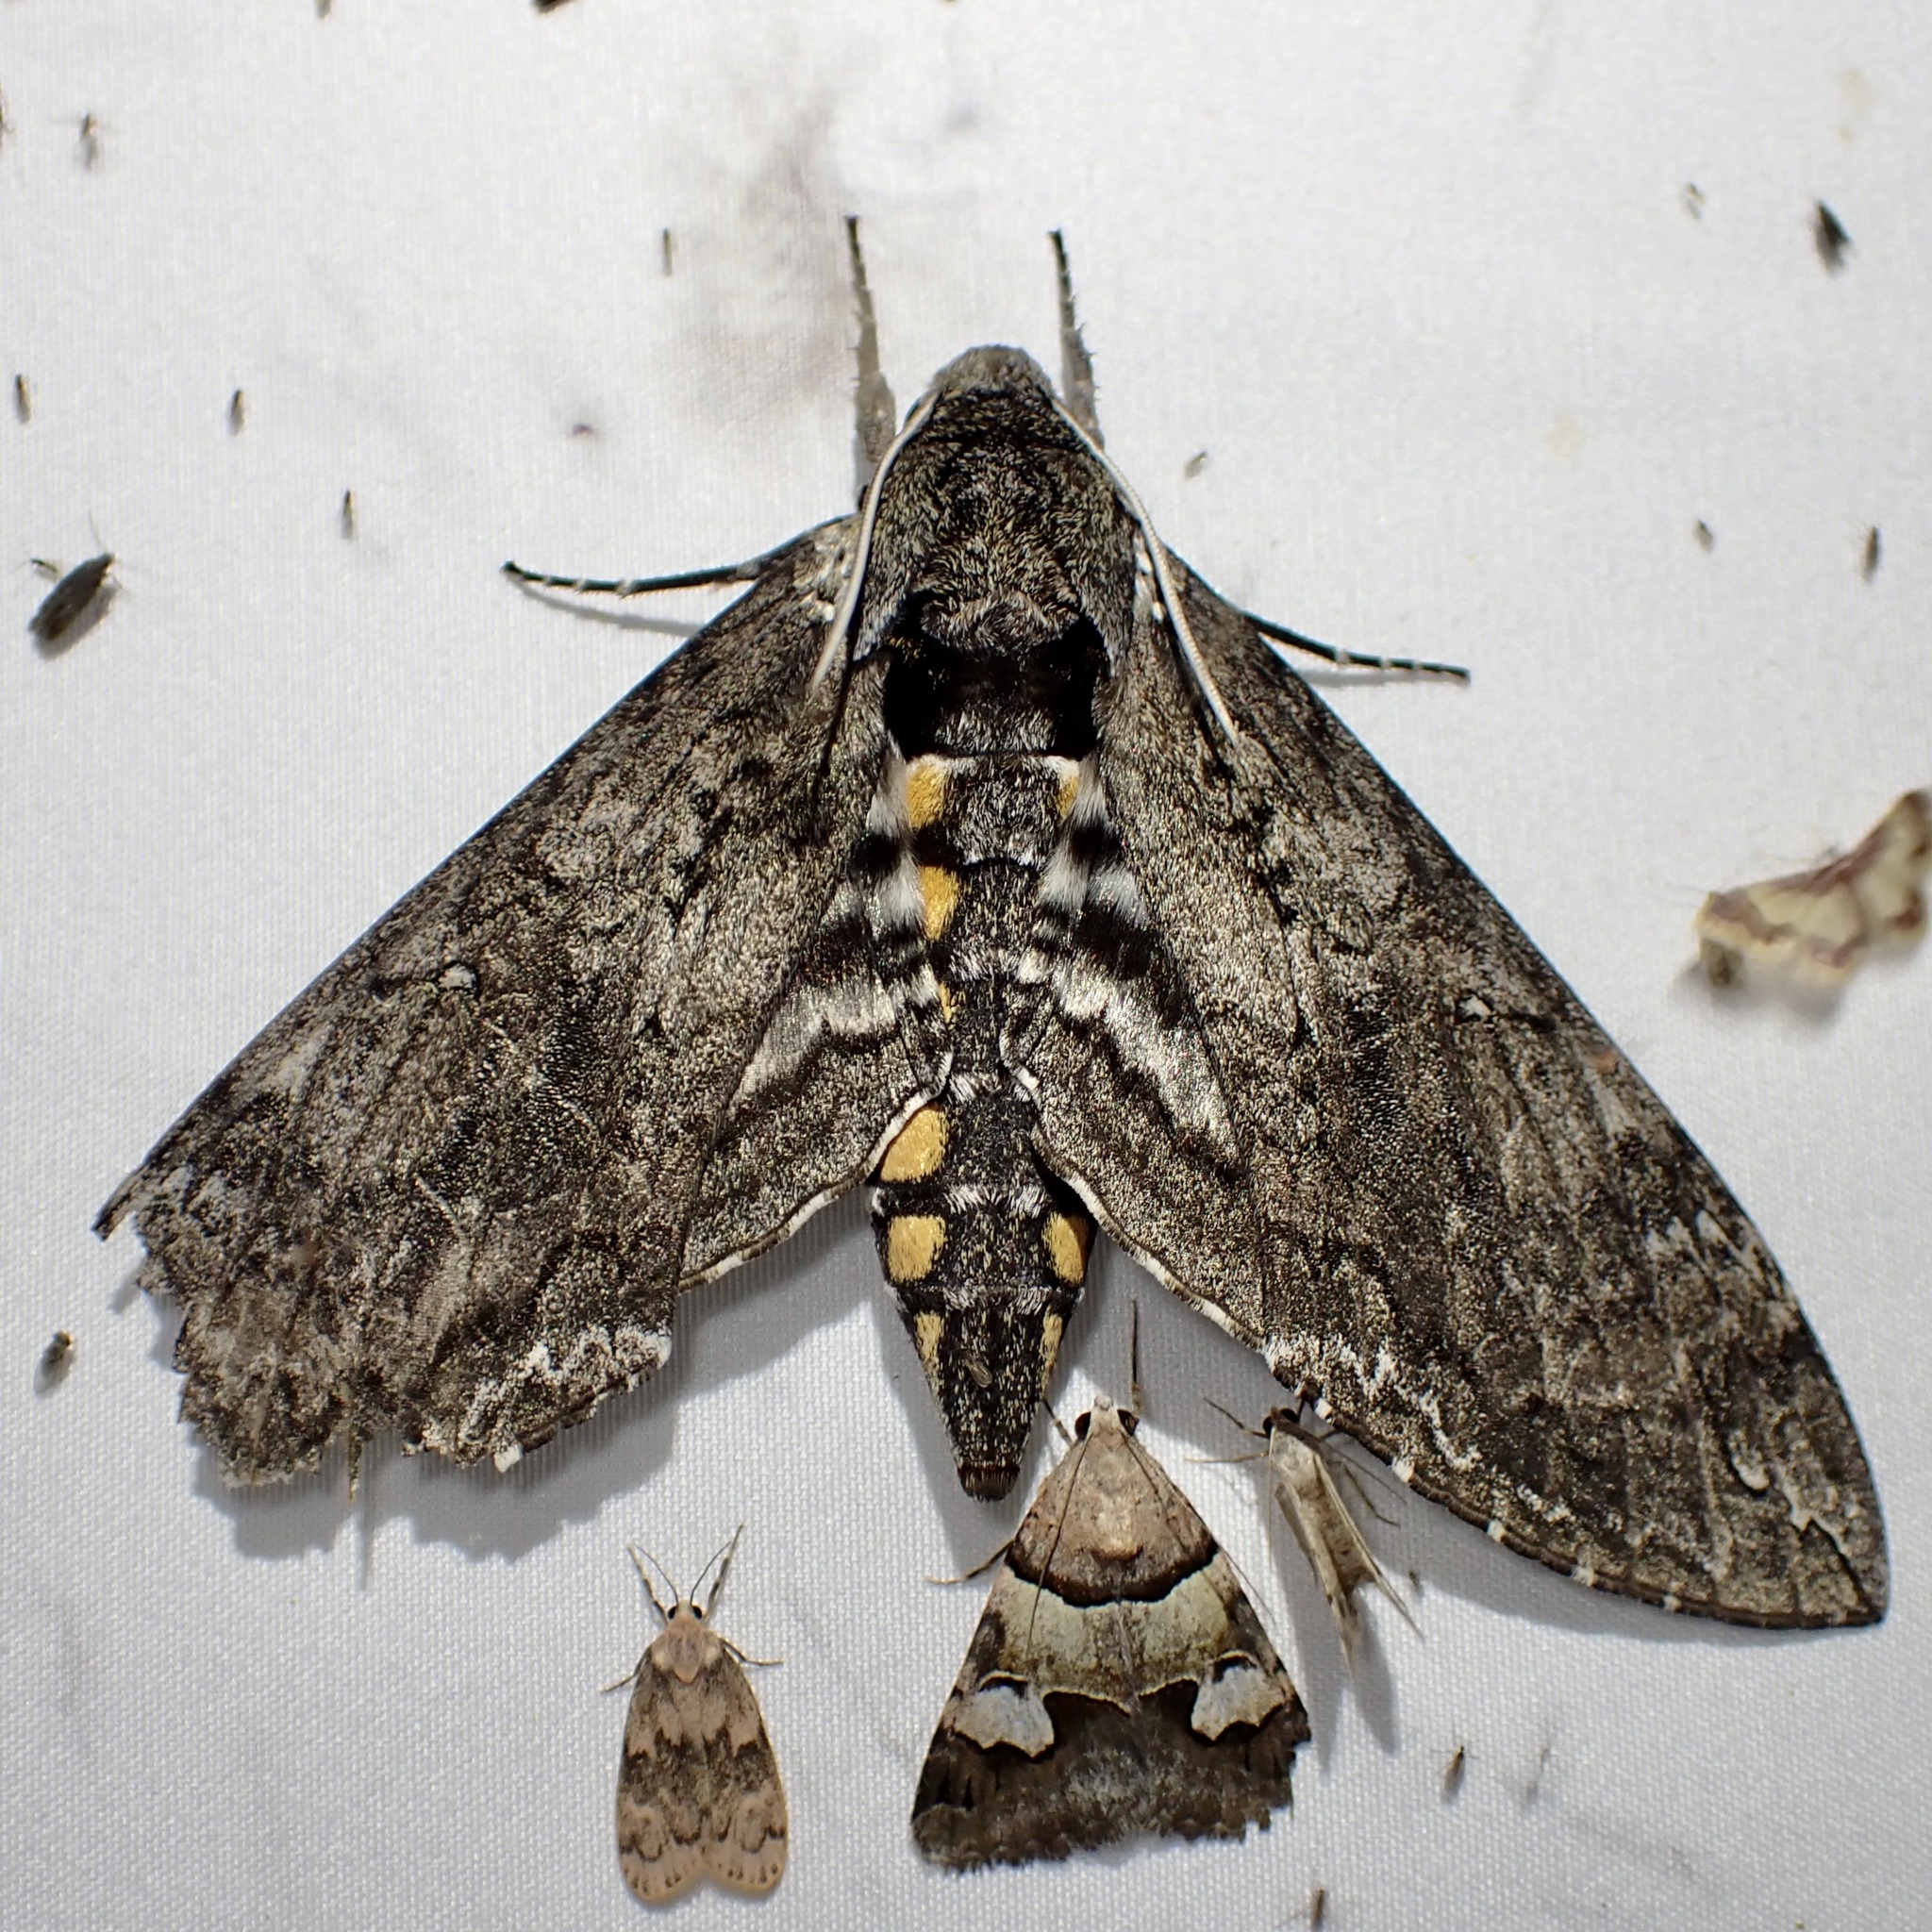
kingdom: Animalia
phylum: Arthropoda
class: Insecta
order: Lepidoptera
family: Sphingidae
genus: Manduca
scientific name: Manduca sexta
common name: Carolina sphinx
